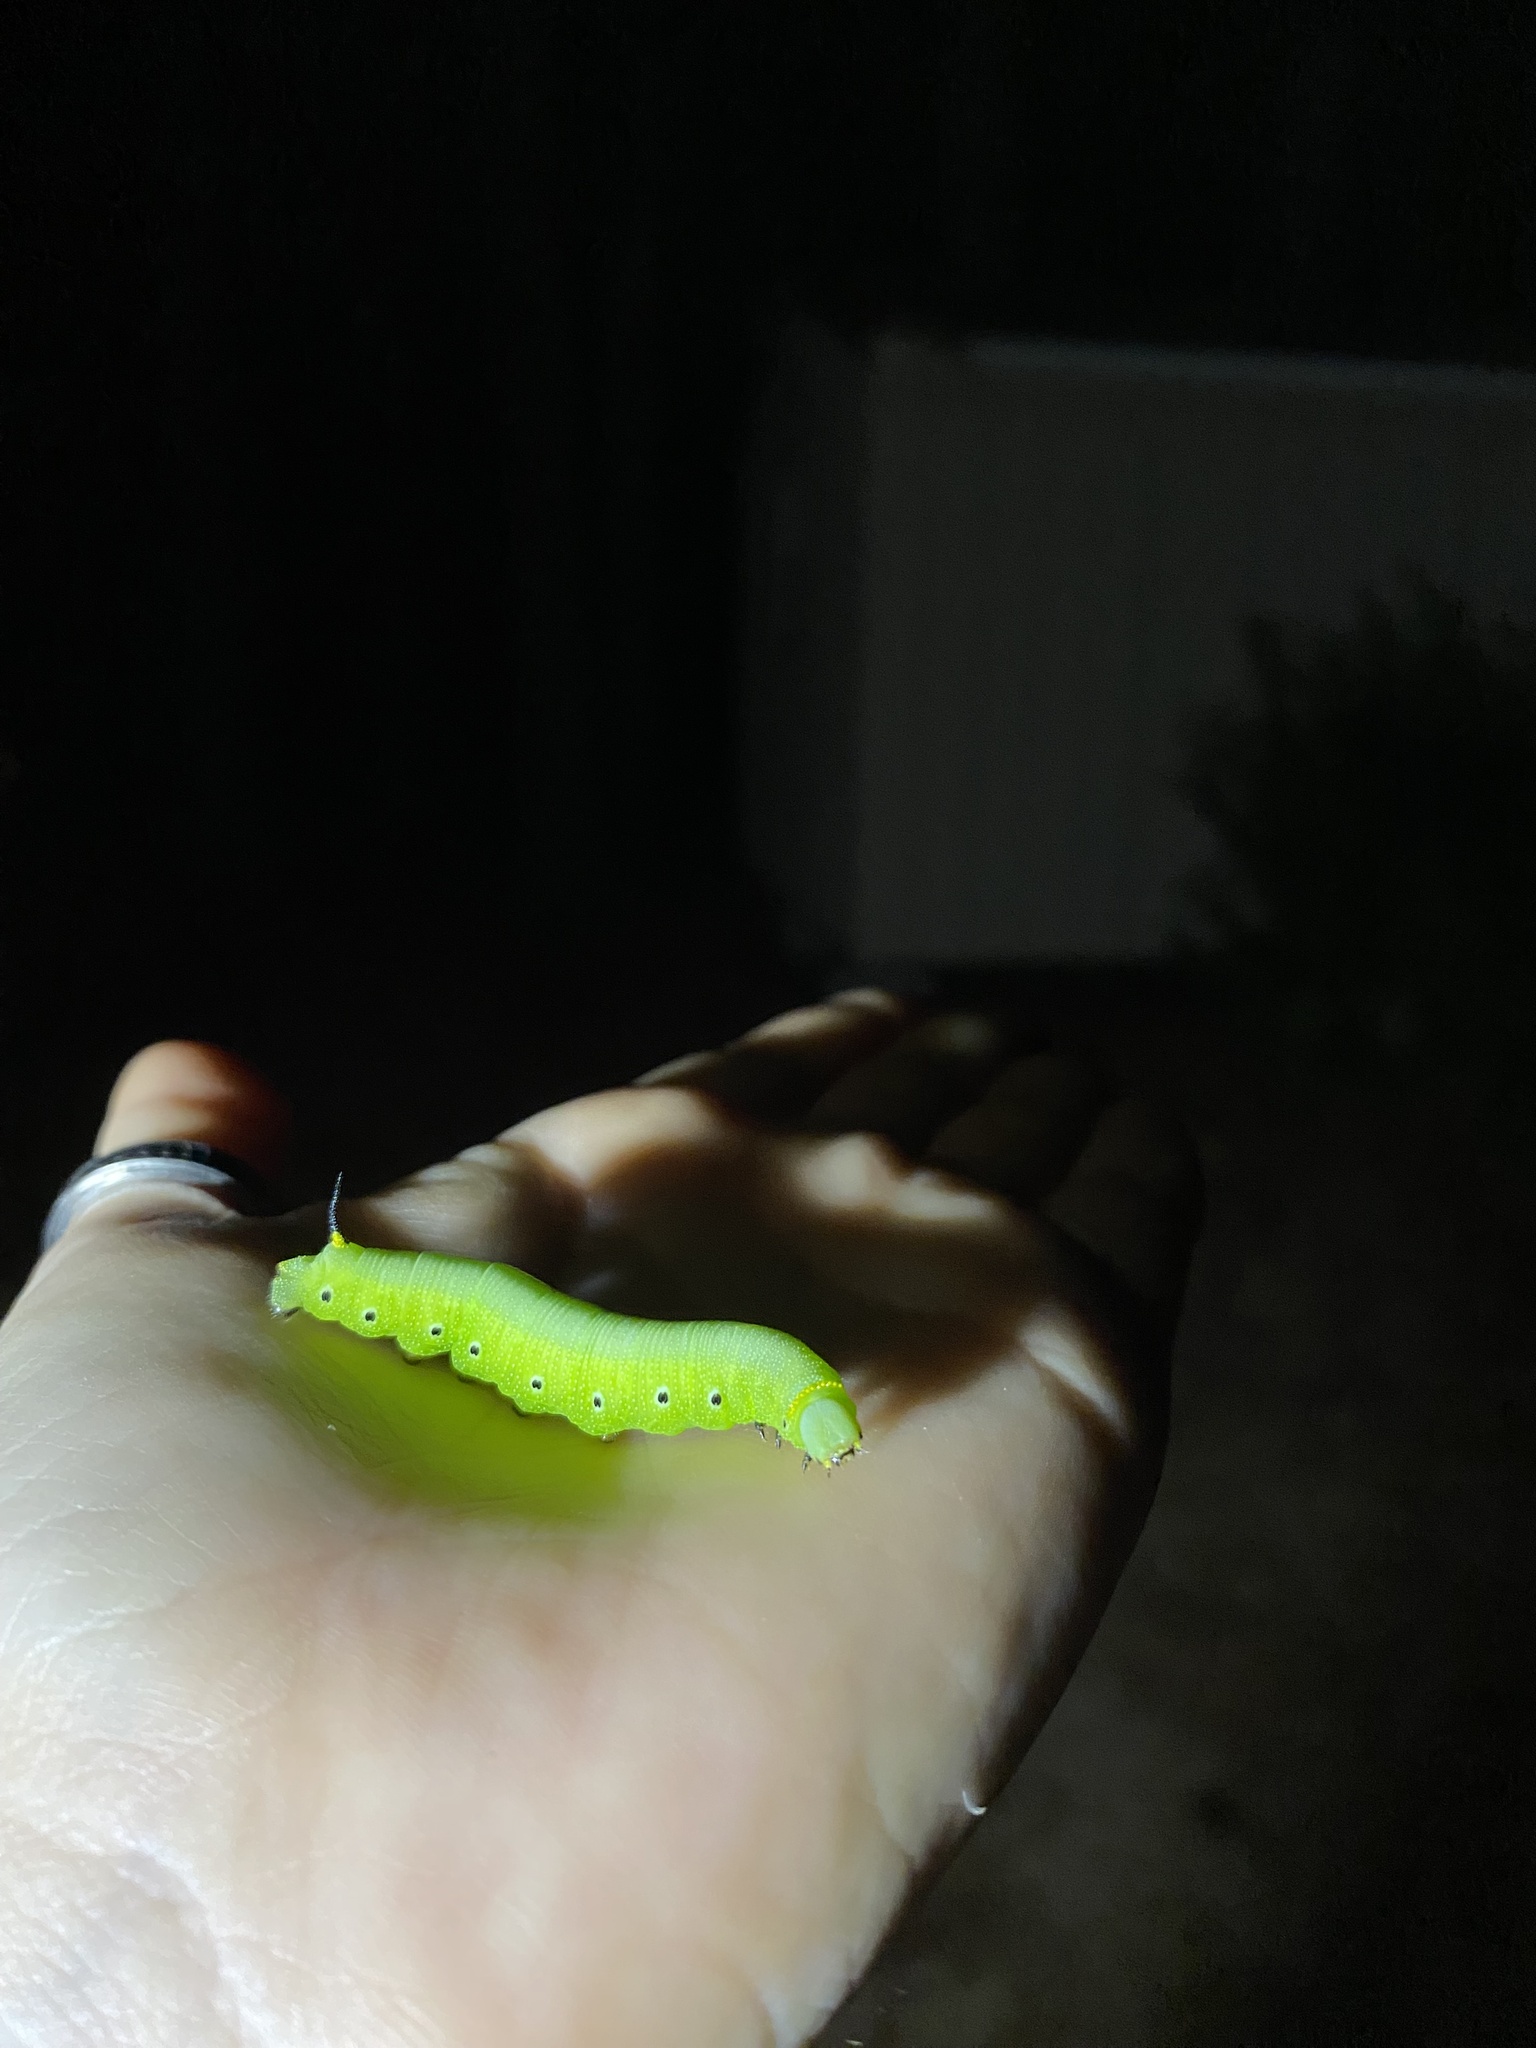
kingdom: Animalia
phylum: Arthropoda
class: Insecta
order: Lepidoptera
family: Sphingidae
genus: Hemaris
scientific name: Hemaris diffinis
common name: Bumblebee moth
